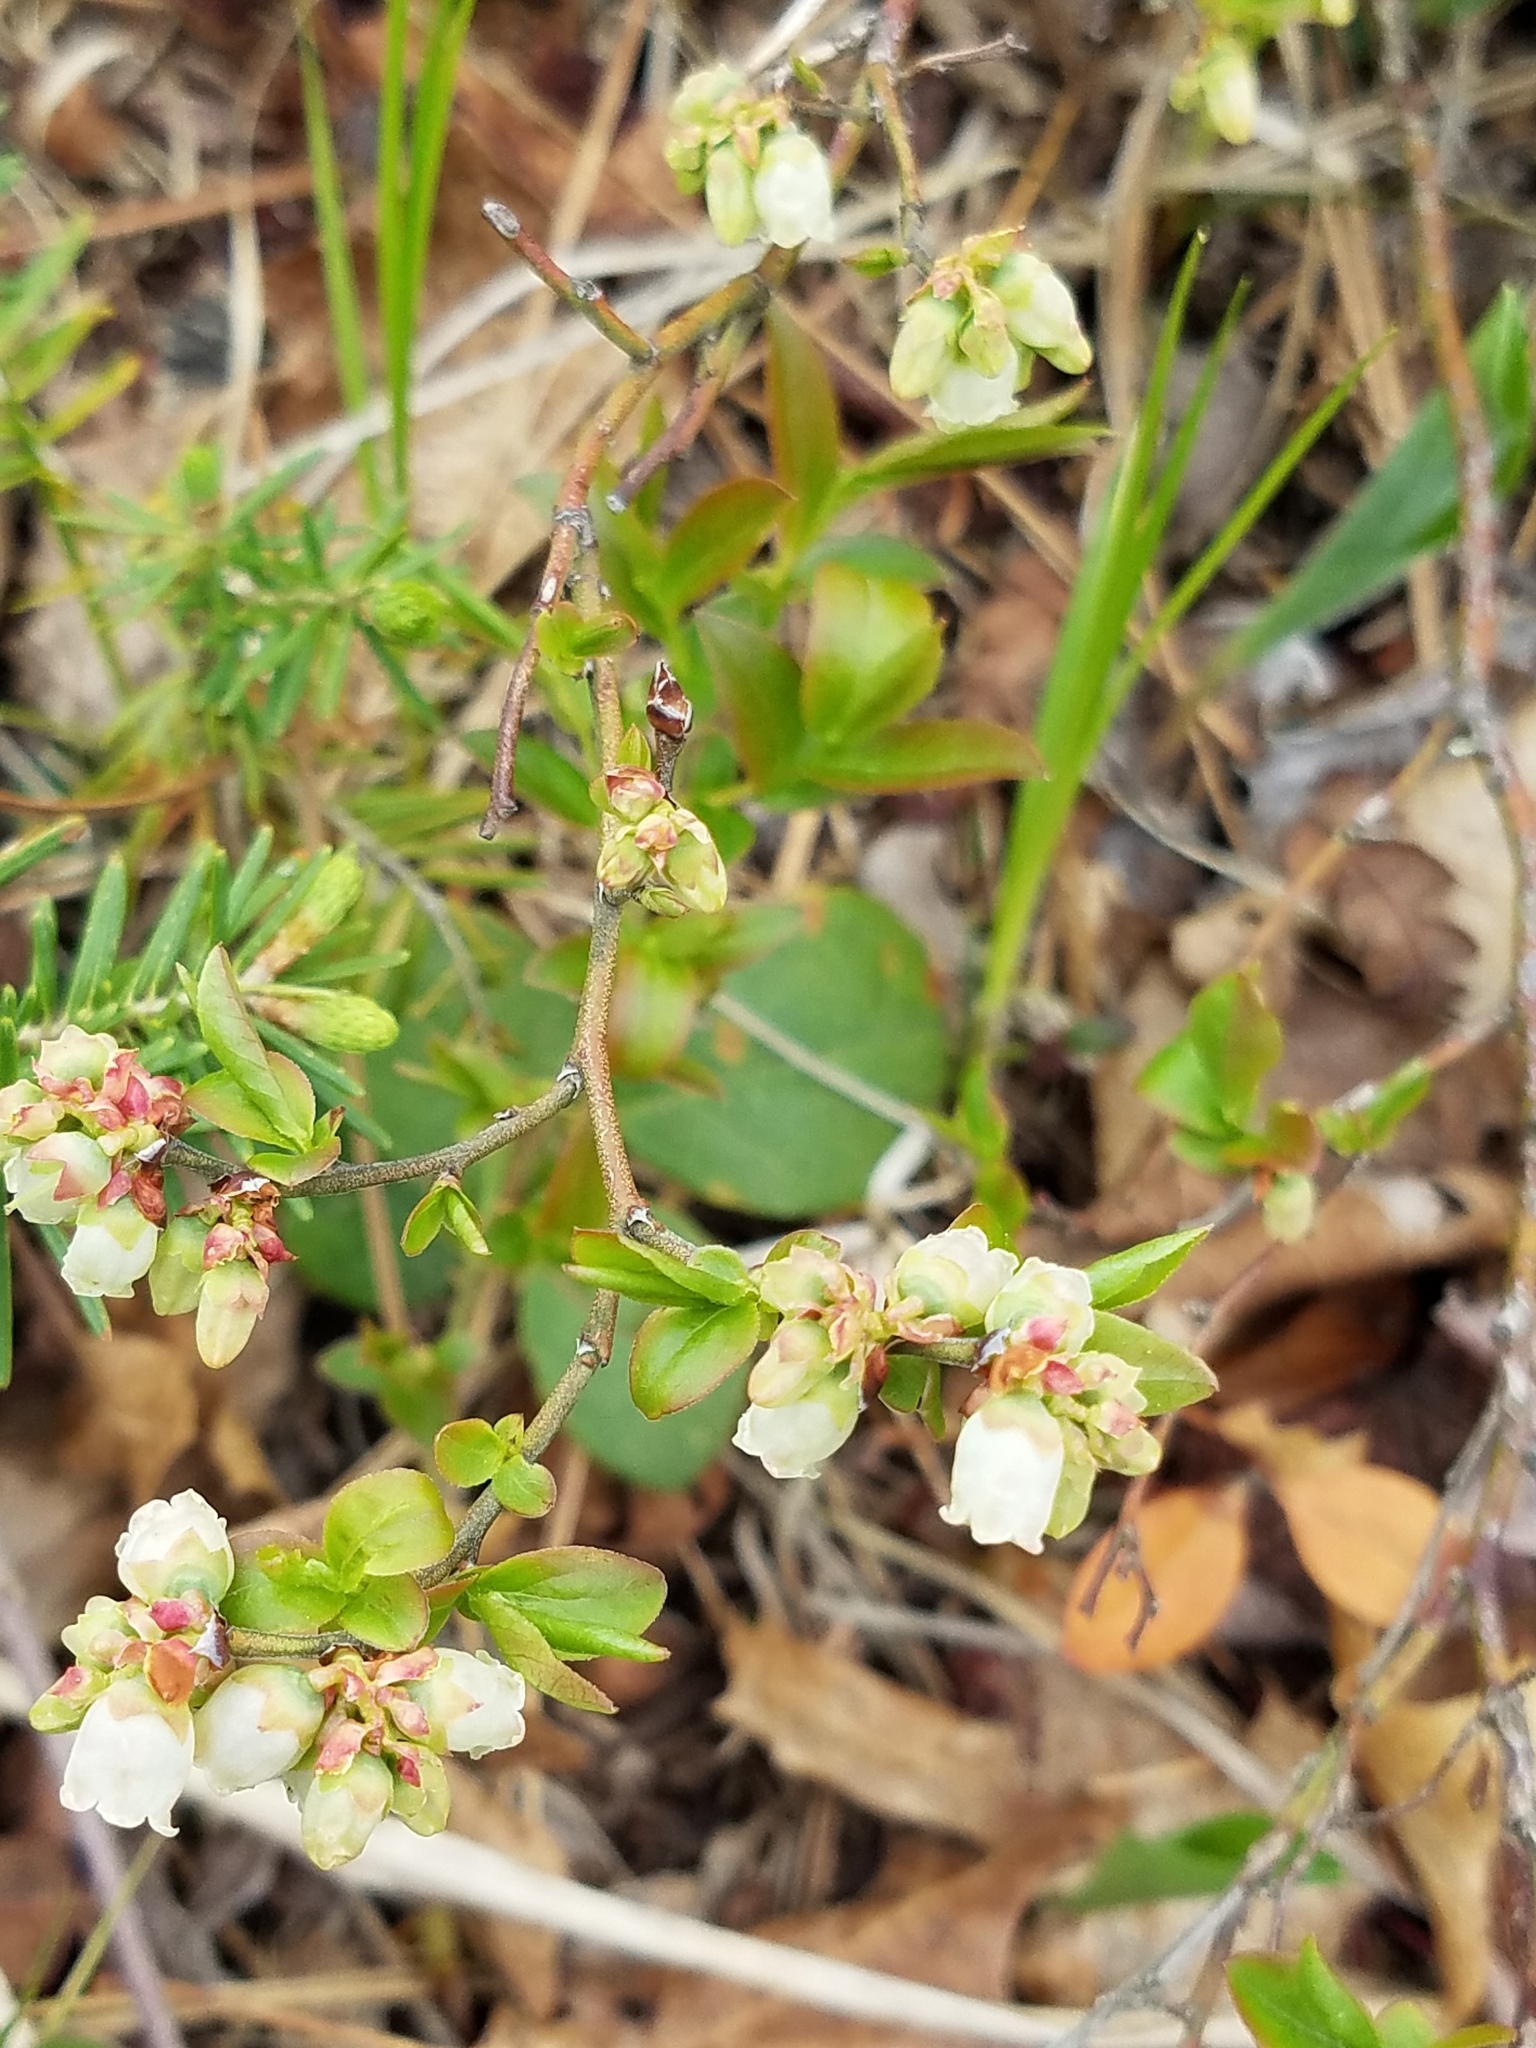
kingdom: Plantae
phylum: Tracheophyta
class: Magnoliopsida
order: Ericales
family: Ericaceae
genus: Vaccinium
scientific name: Vaccinium angustifolium
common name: Early lowbush blueberry
